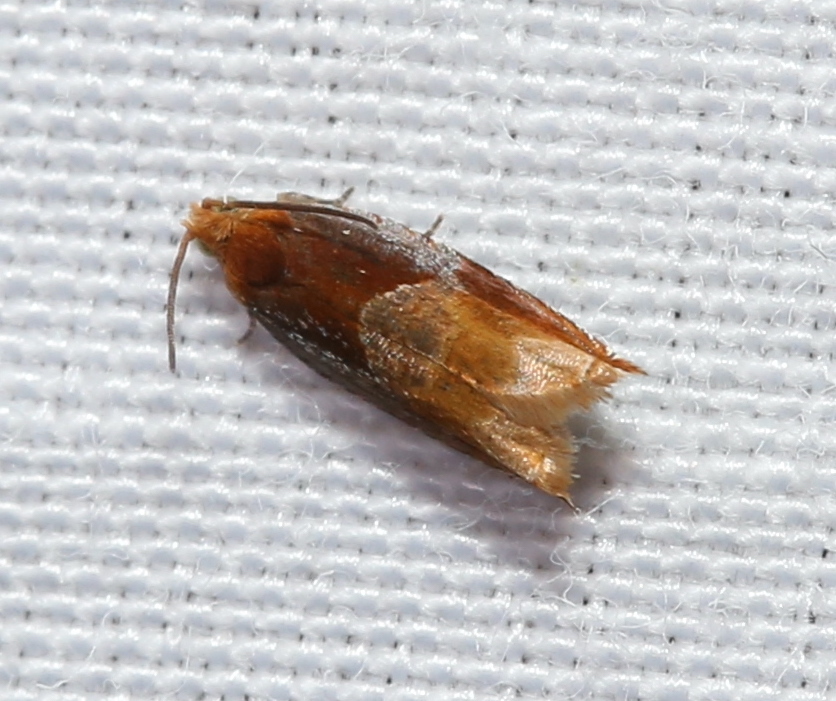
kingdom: Animalia
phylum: Arthropoda
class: Insecta
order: Lepidoptera
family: Tortricidae
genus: Ancylis
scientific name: Ancylis divisana
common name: Two-toned ancylis moth
